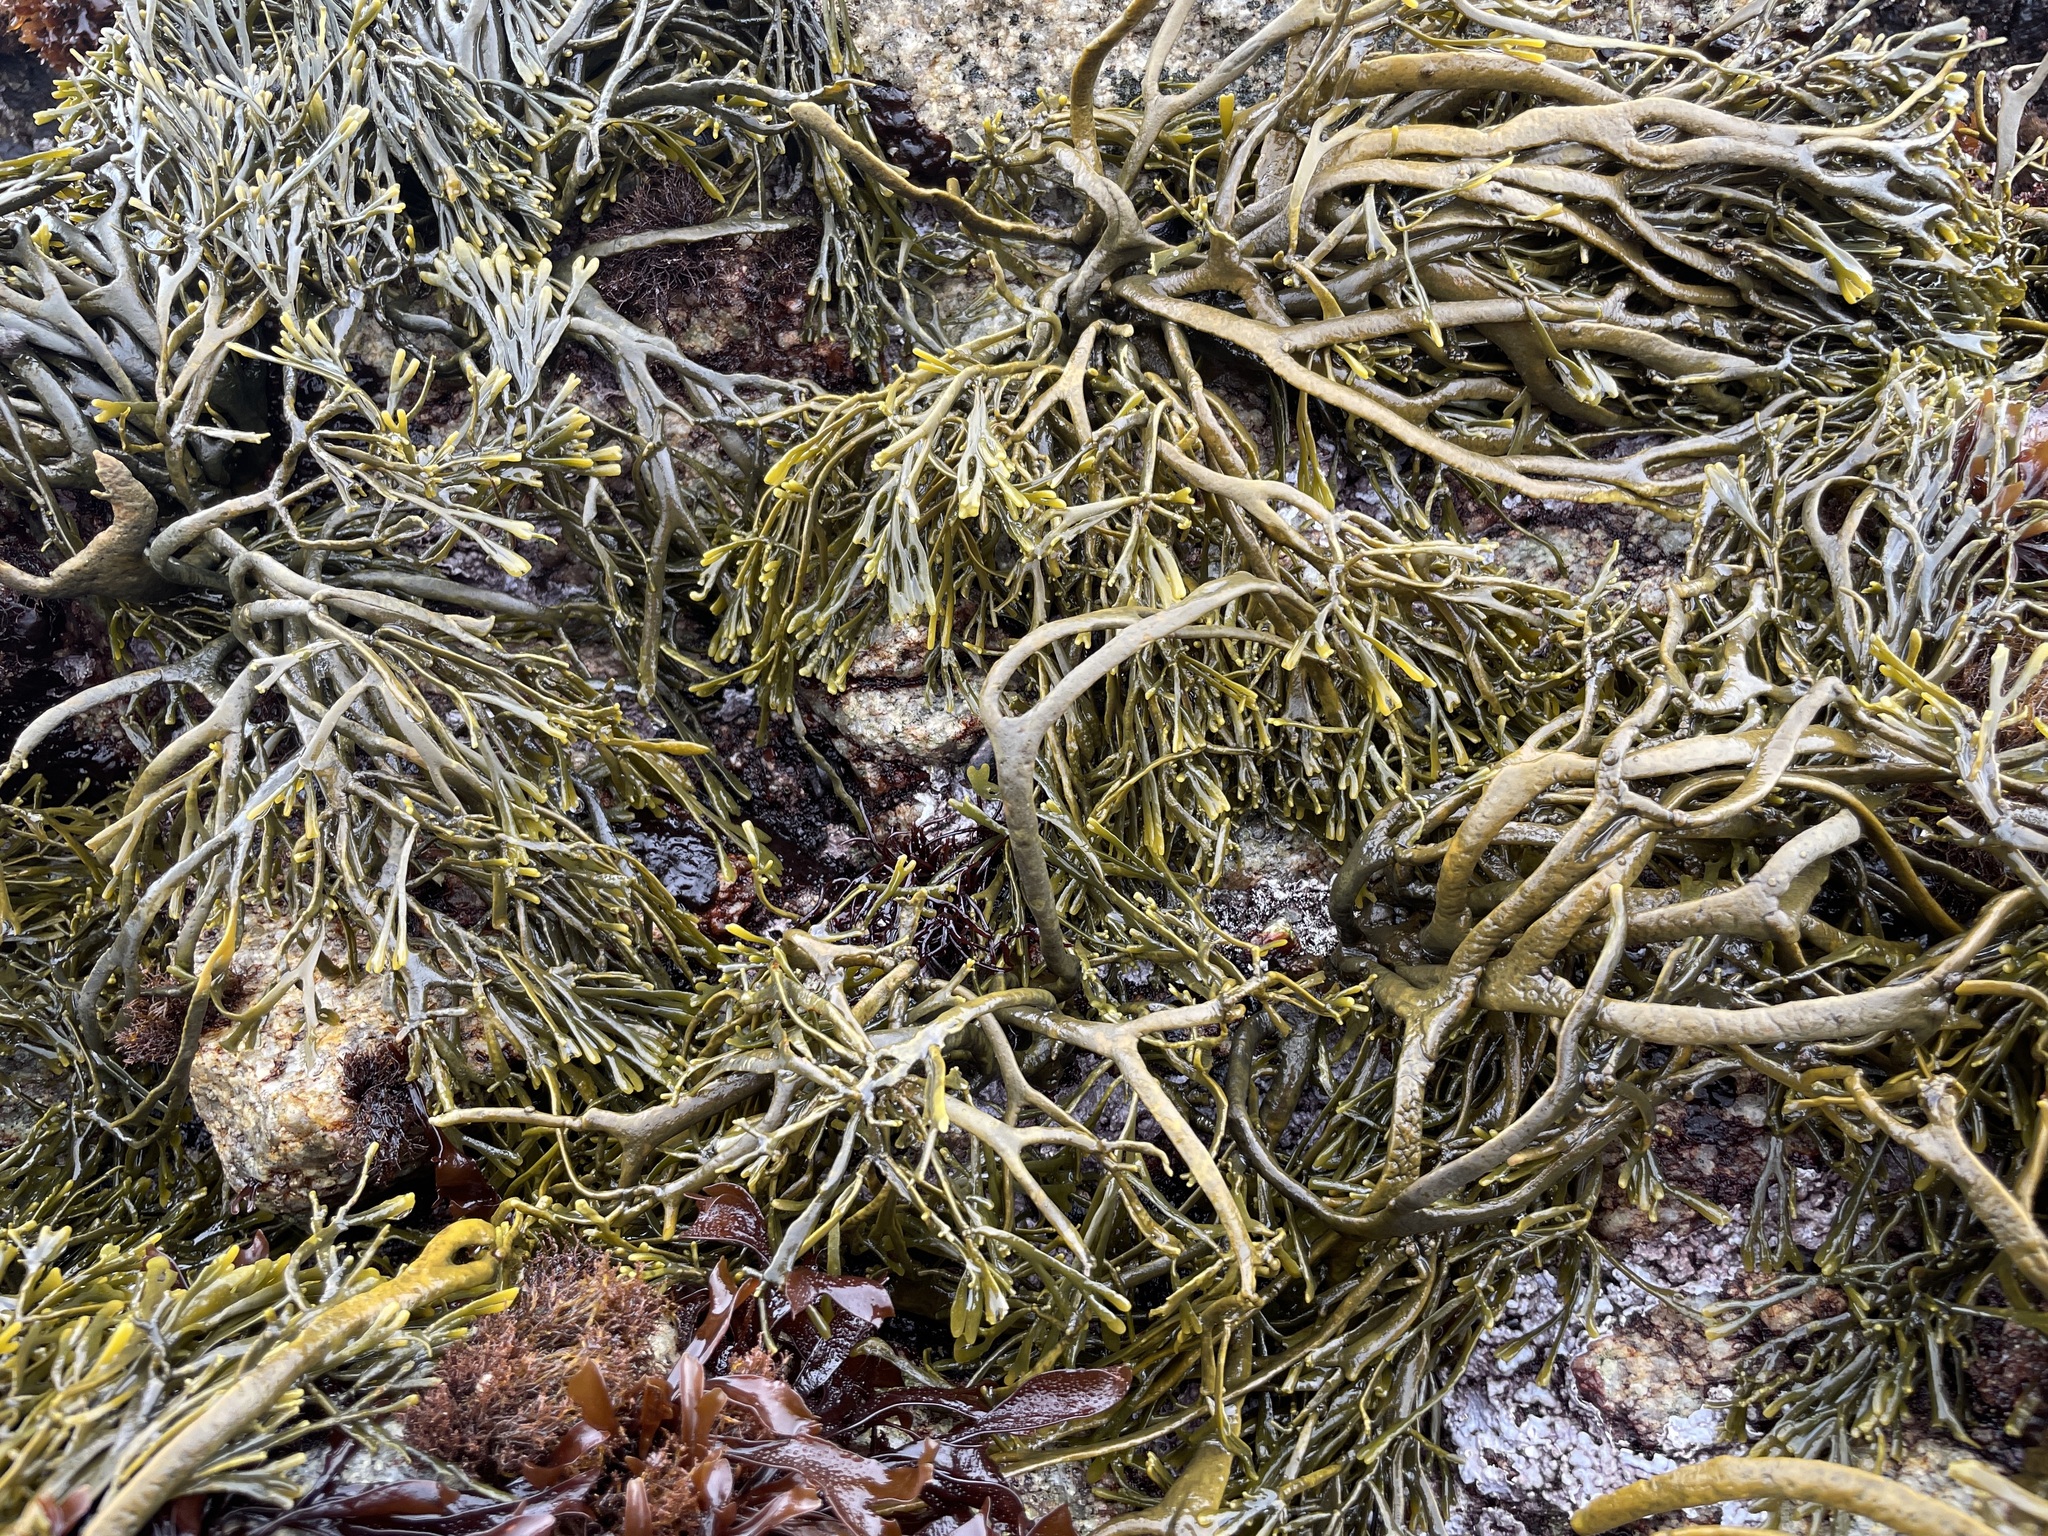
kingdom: Chromista
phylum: Ochrophyta
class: Phaeophyceae
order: Fucales
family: Fucaceae
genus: Silvetia
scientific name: Silvetia
